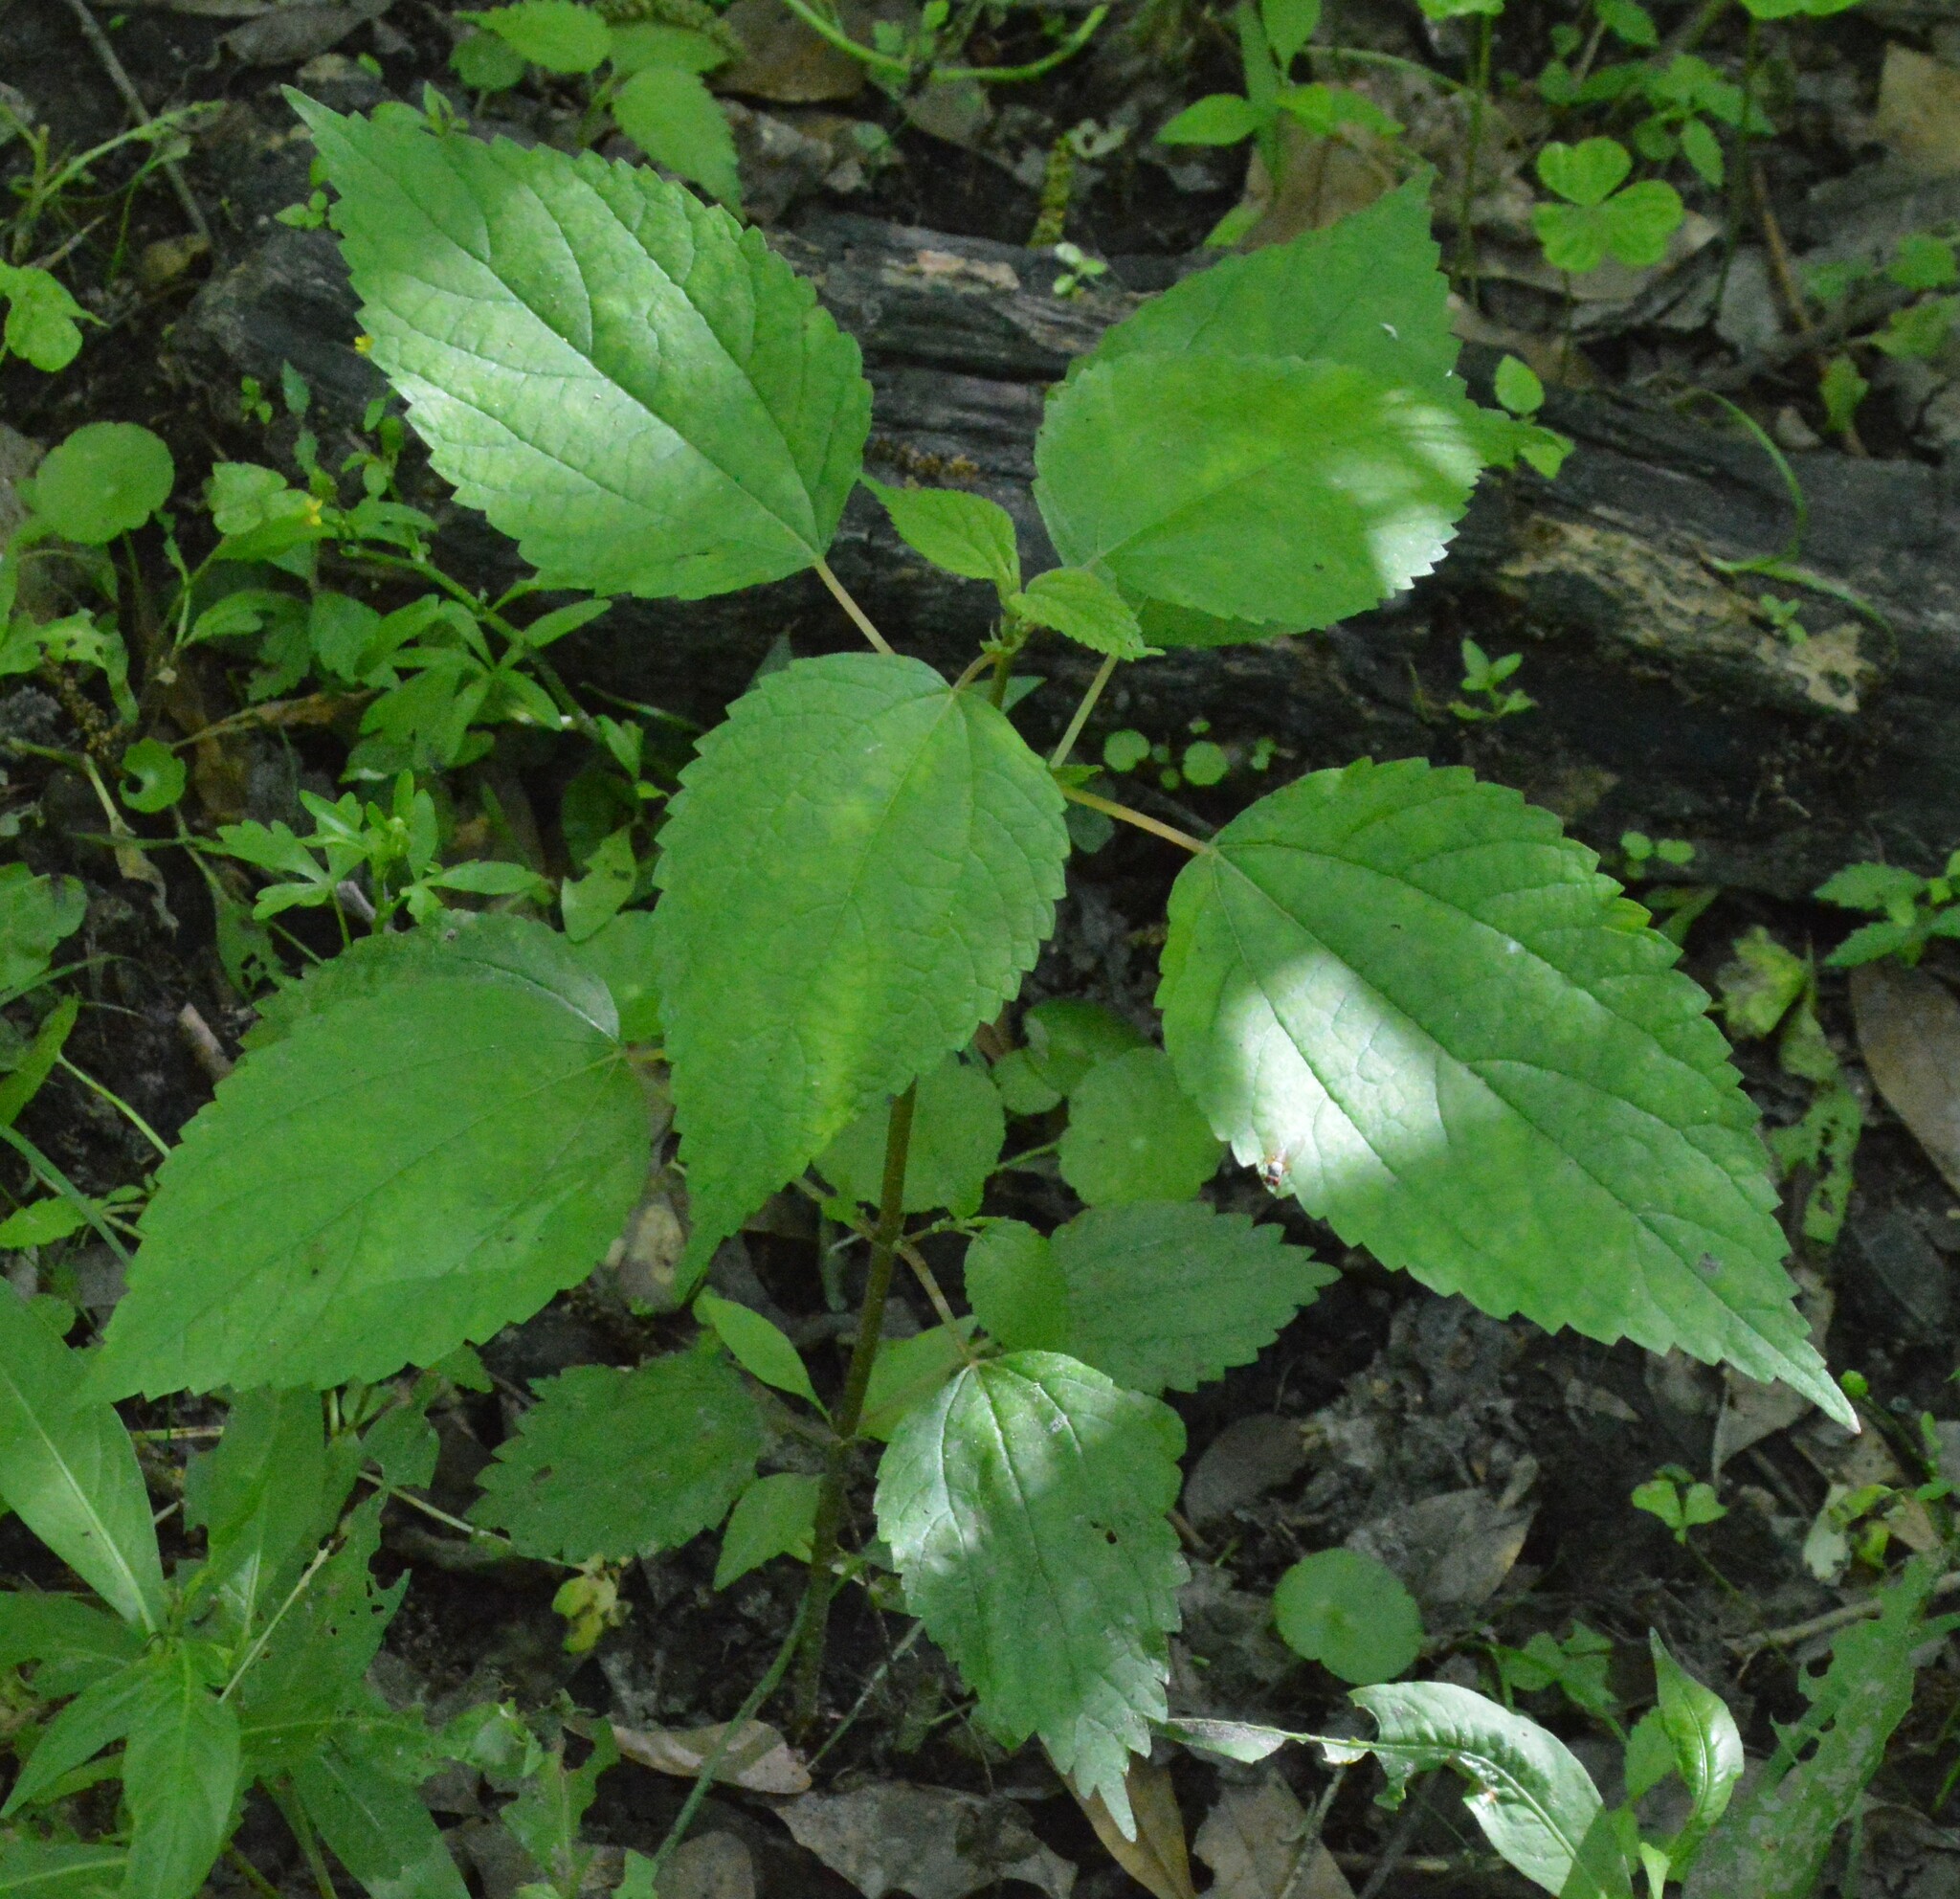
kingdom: Plantae
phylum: Tracheophyta
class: Magnoliopsida
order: Rosales
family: Urticaceae
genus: Boehmeria
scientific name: Boehmeria cylindrica
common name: Bog-hemp
